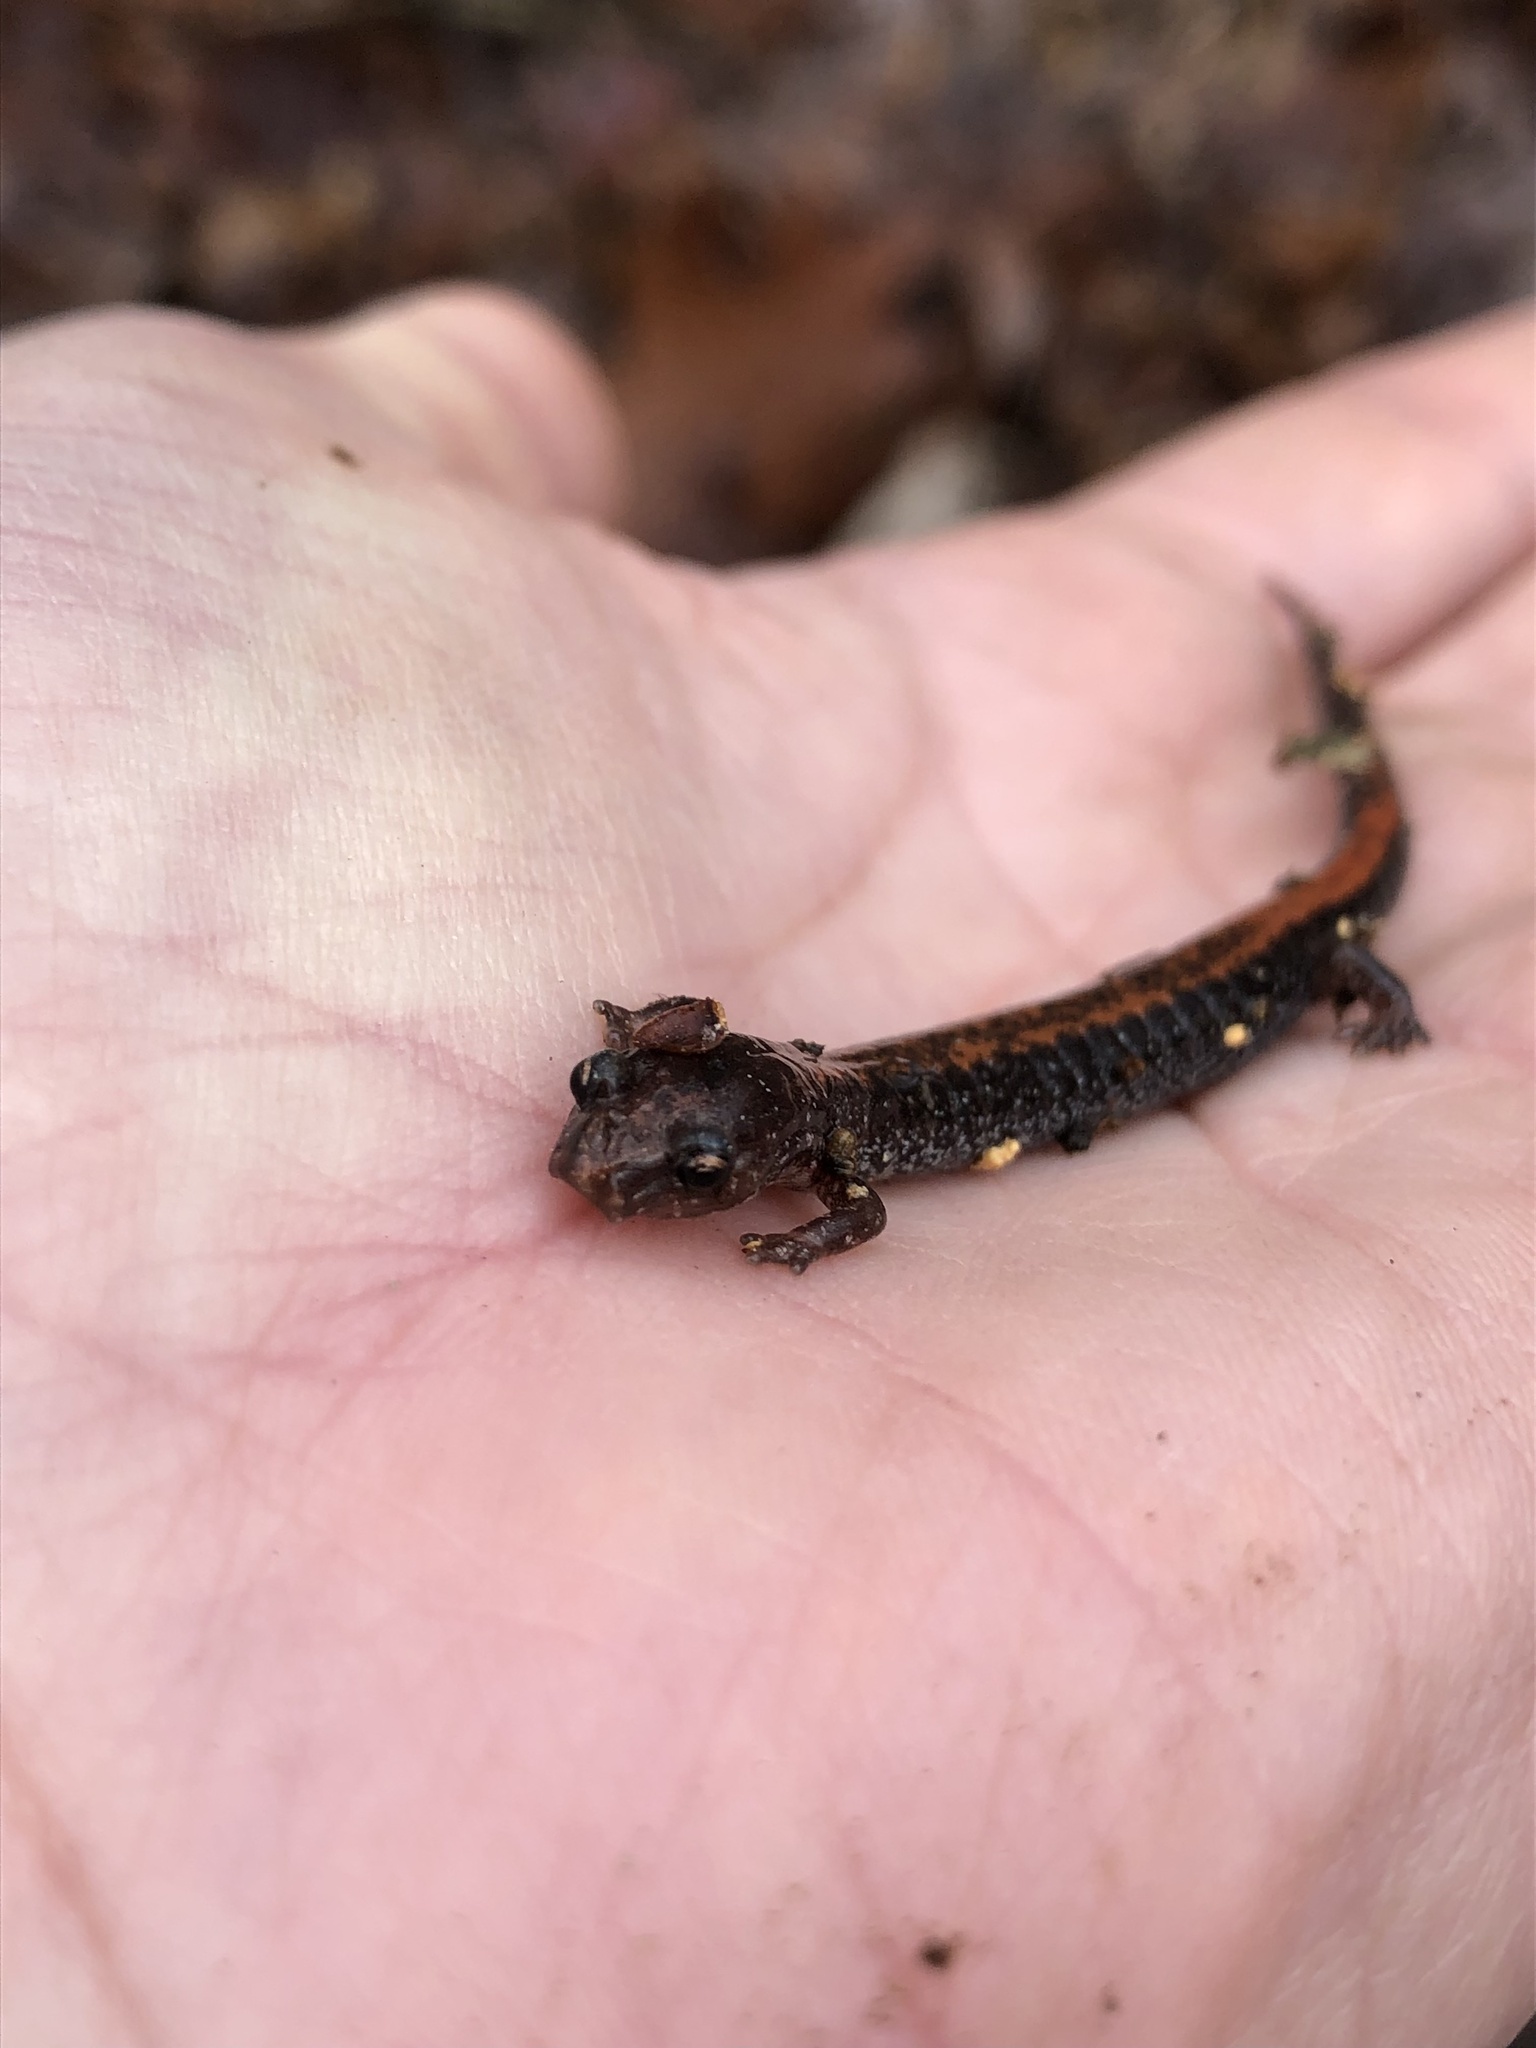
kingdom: Animalia
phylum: Chordata
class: Amphibia
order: Caudata
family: Plethodontidae
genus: Plethodon
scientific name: Plethodon serratus
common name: Southern red-backed salamander
